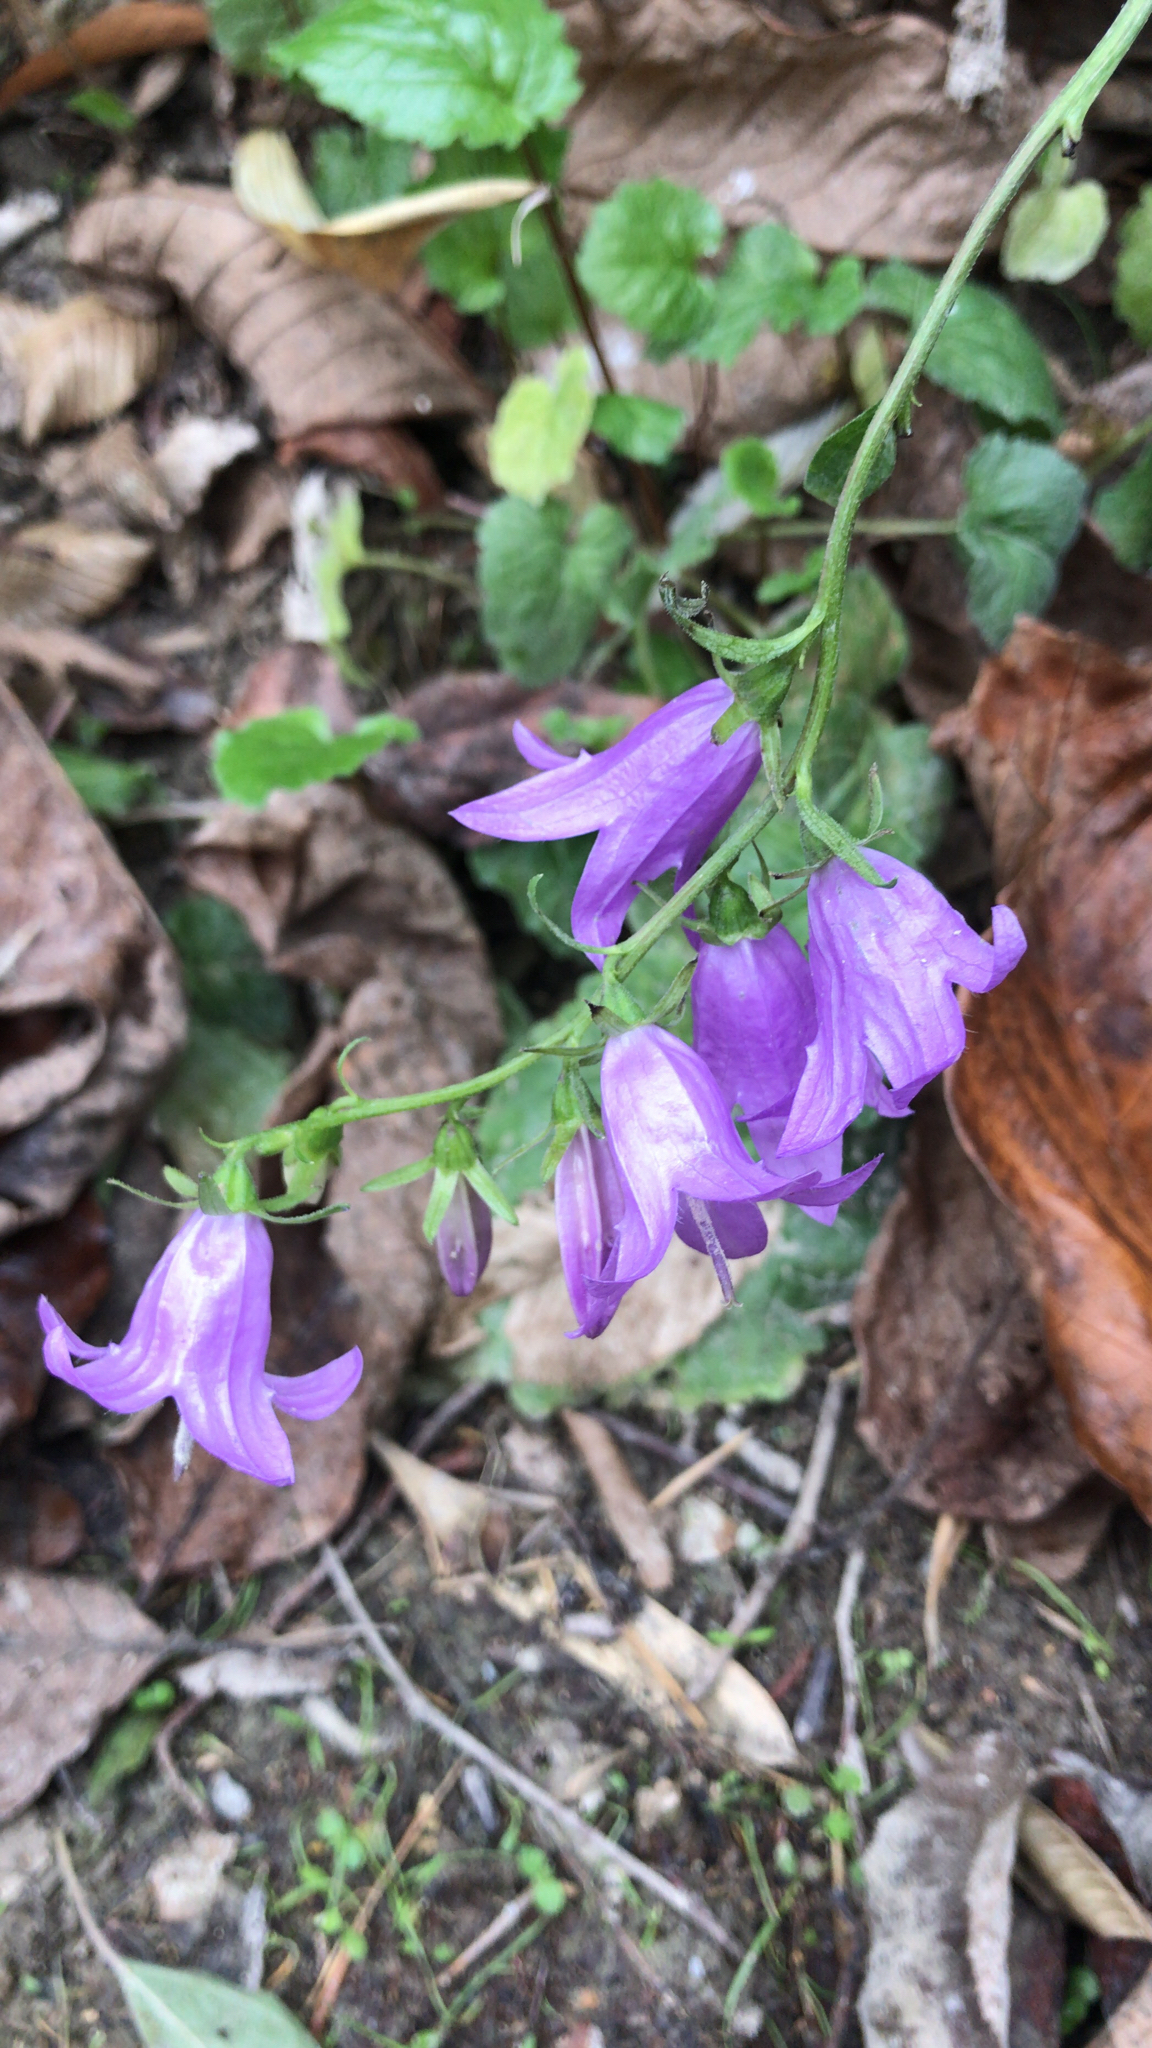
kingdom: Plantae
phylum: Tracheophyta
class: Magnoliopsida
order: Asterales
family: Campanulaceae
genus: Campanula
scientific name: Campanula rapunculoides
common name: Creeping bellflower
